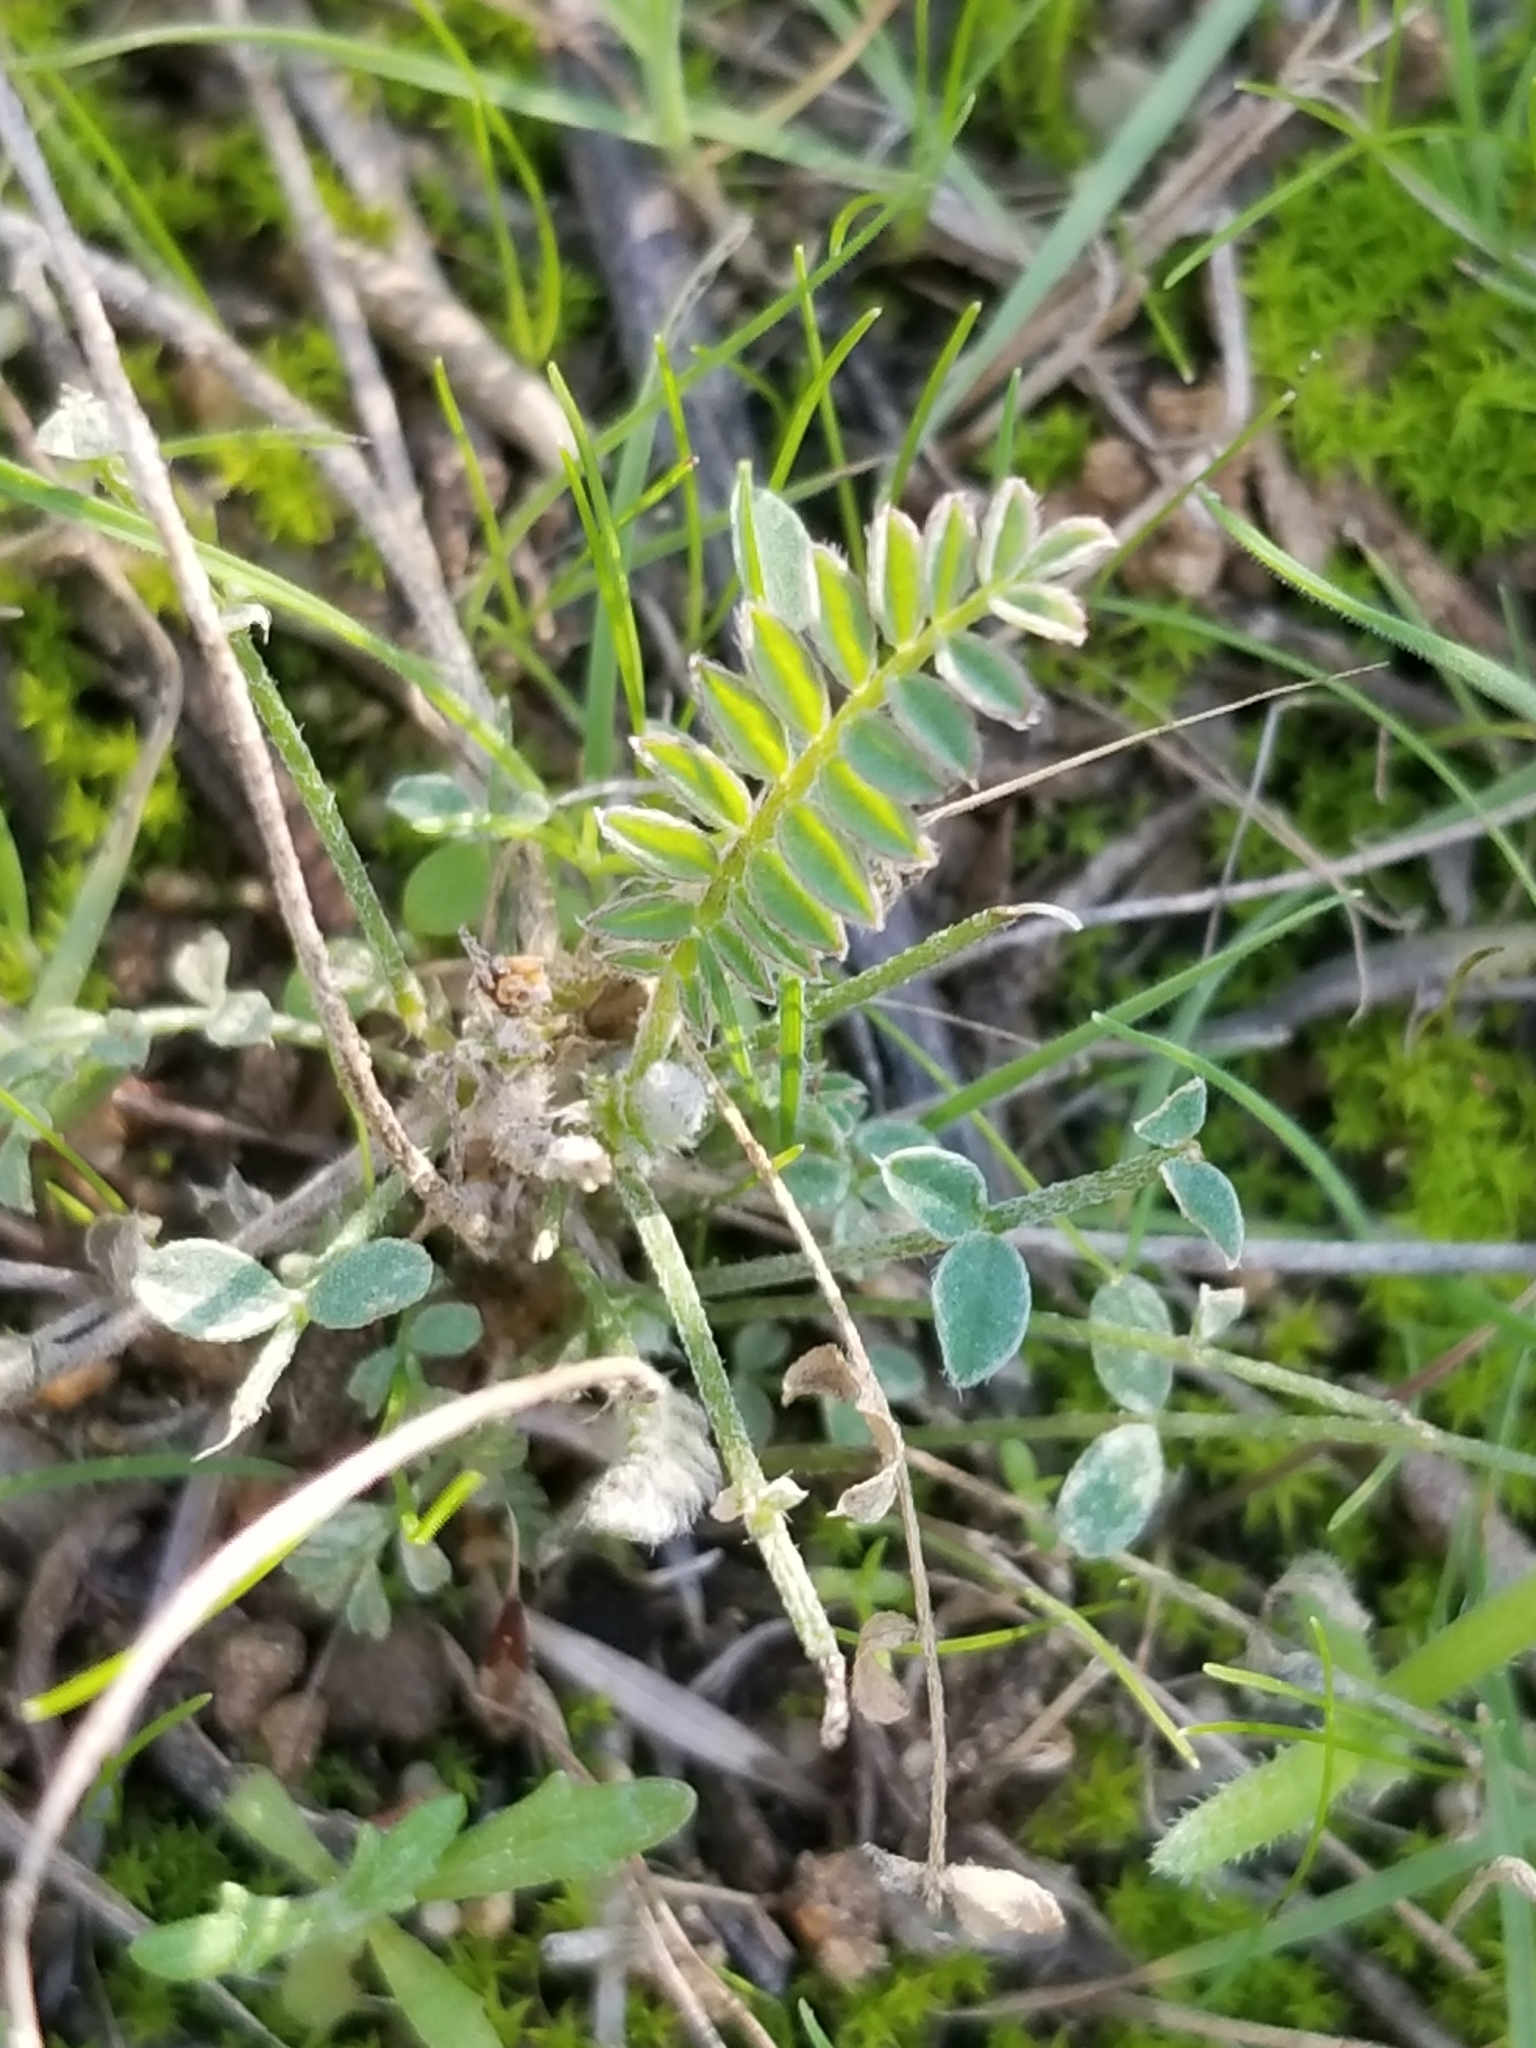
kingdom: Plantae
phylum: Tracheophyta
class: Magnoliopsida
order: Fabales
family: Fabaceae
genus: Astragalus
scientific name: Astragalus trichopodus
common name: Santa barbara milk-vetch
